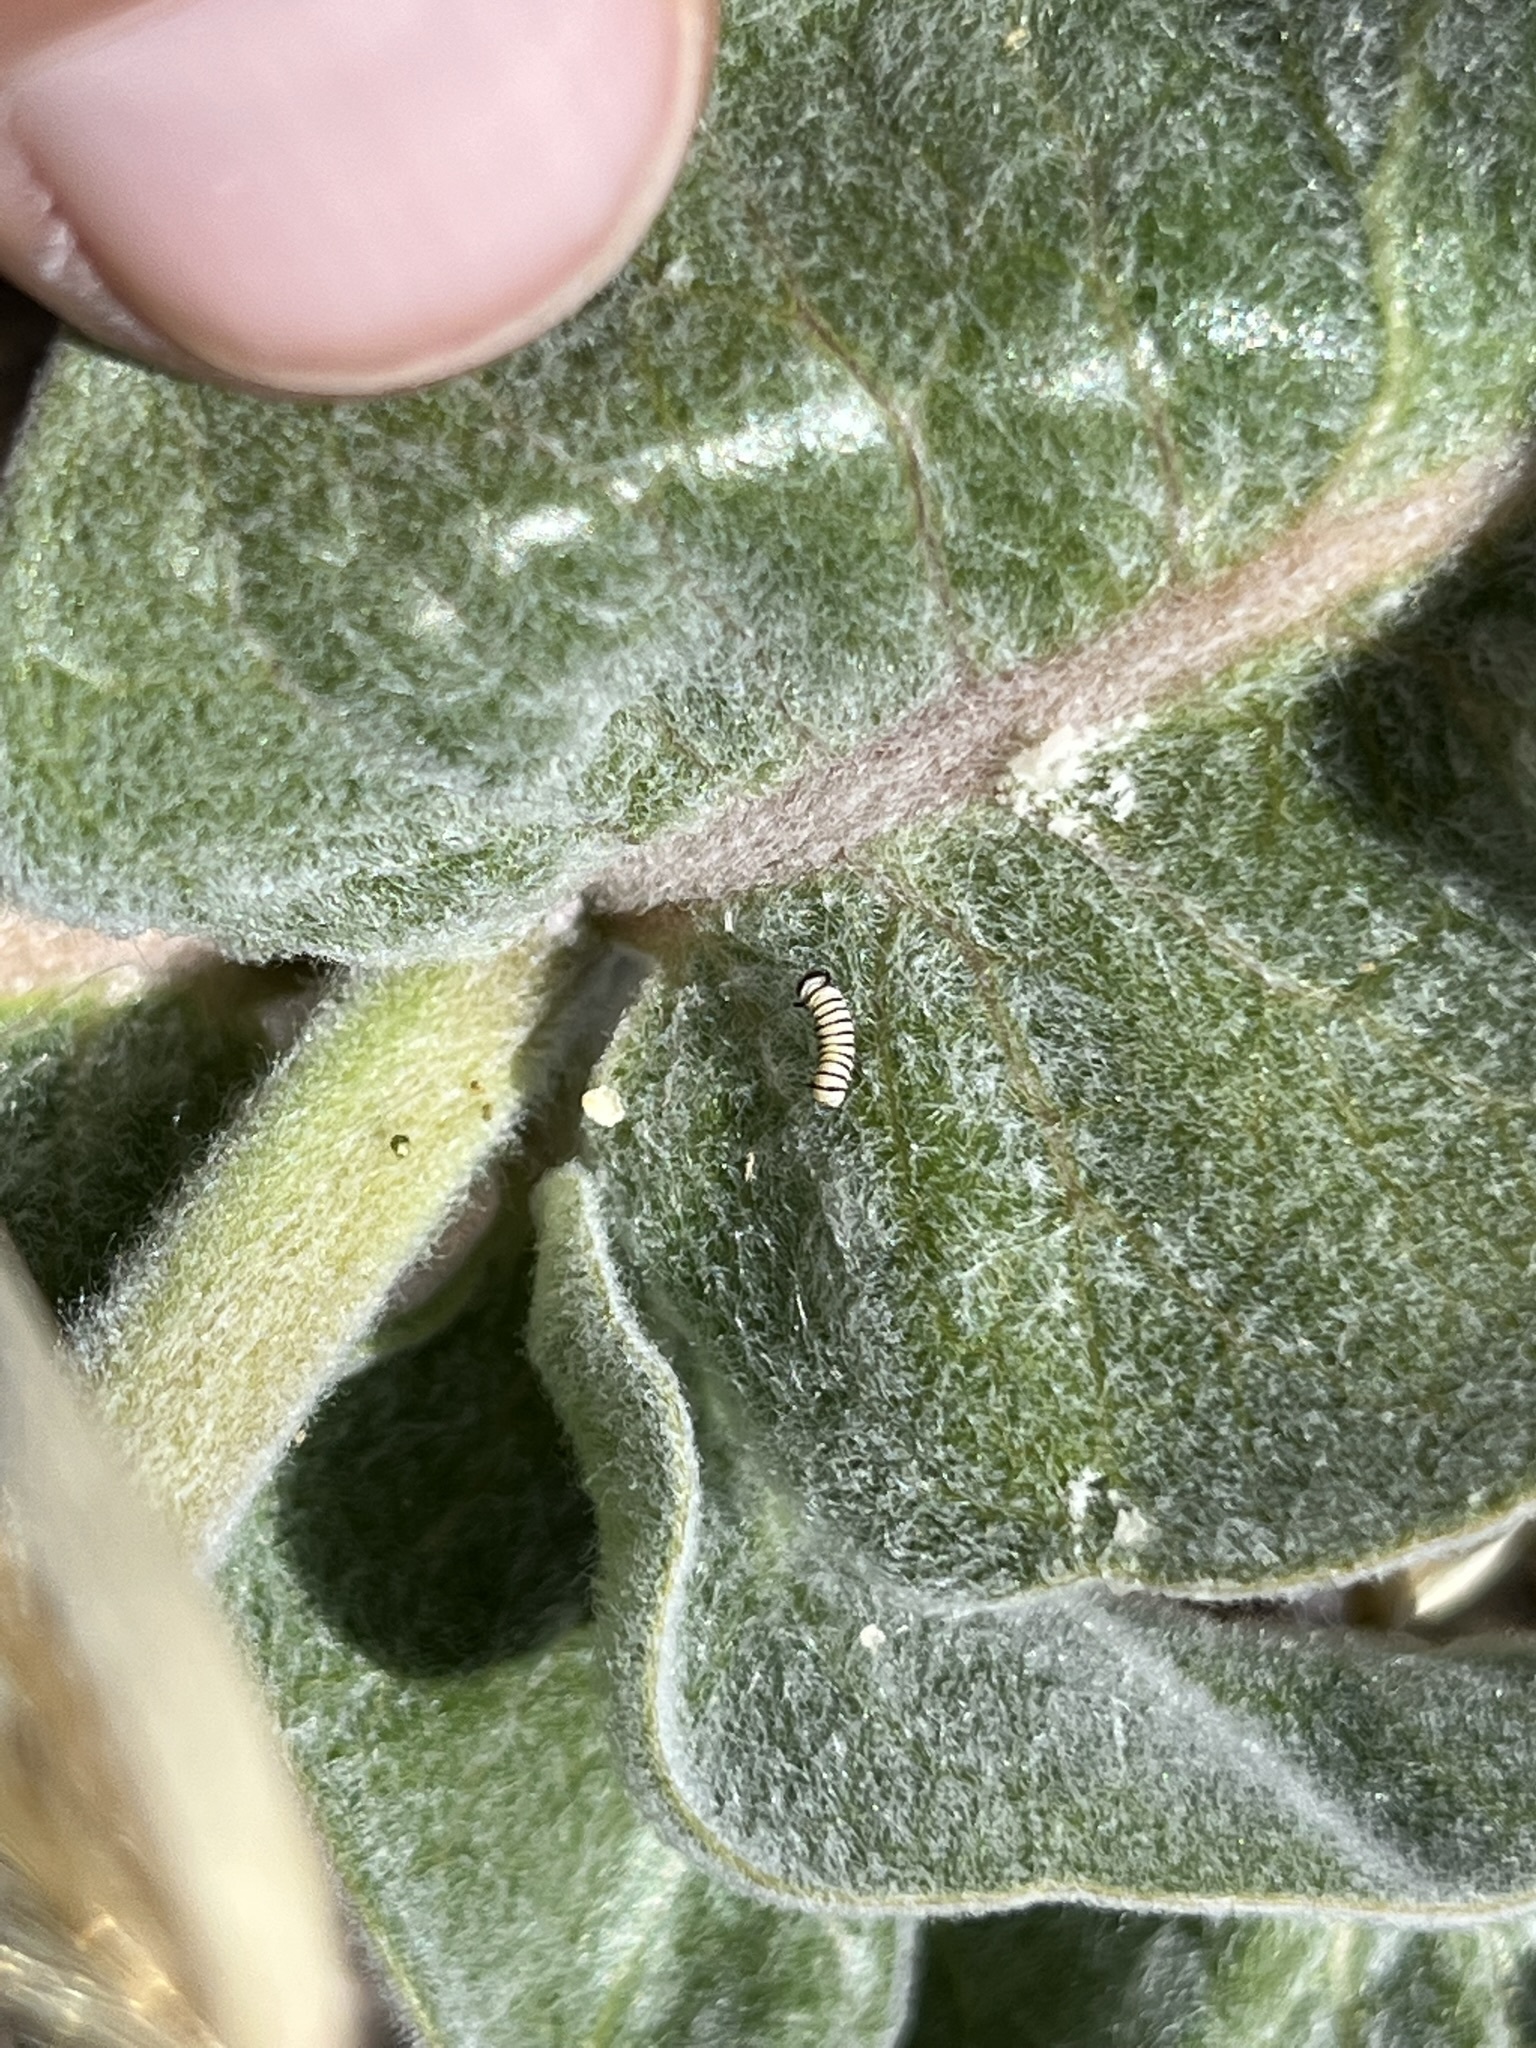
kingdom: Animalia
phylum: Arthropoda
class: Insecta
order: Lepidoptera
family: Nymphalidae
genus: Danaus
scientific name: Danaus plexippus
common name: Monarch
